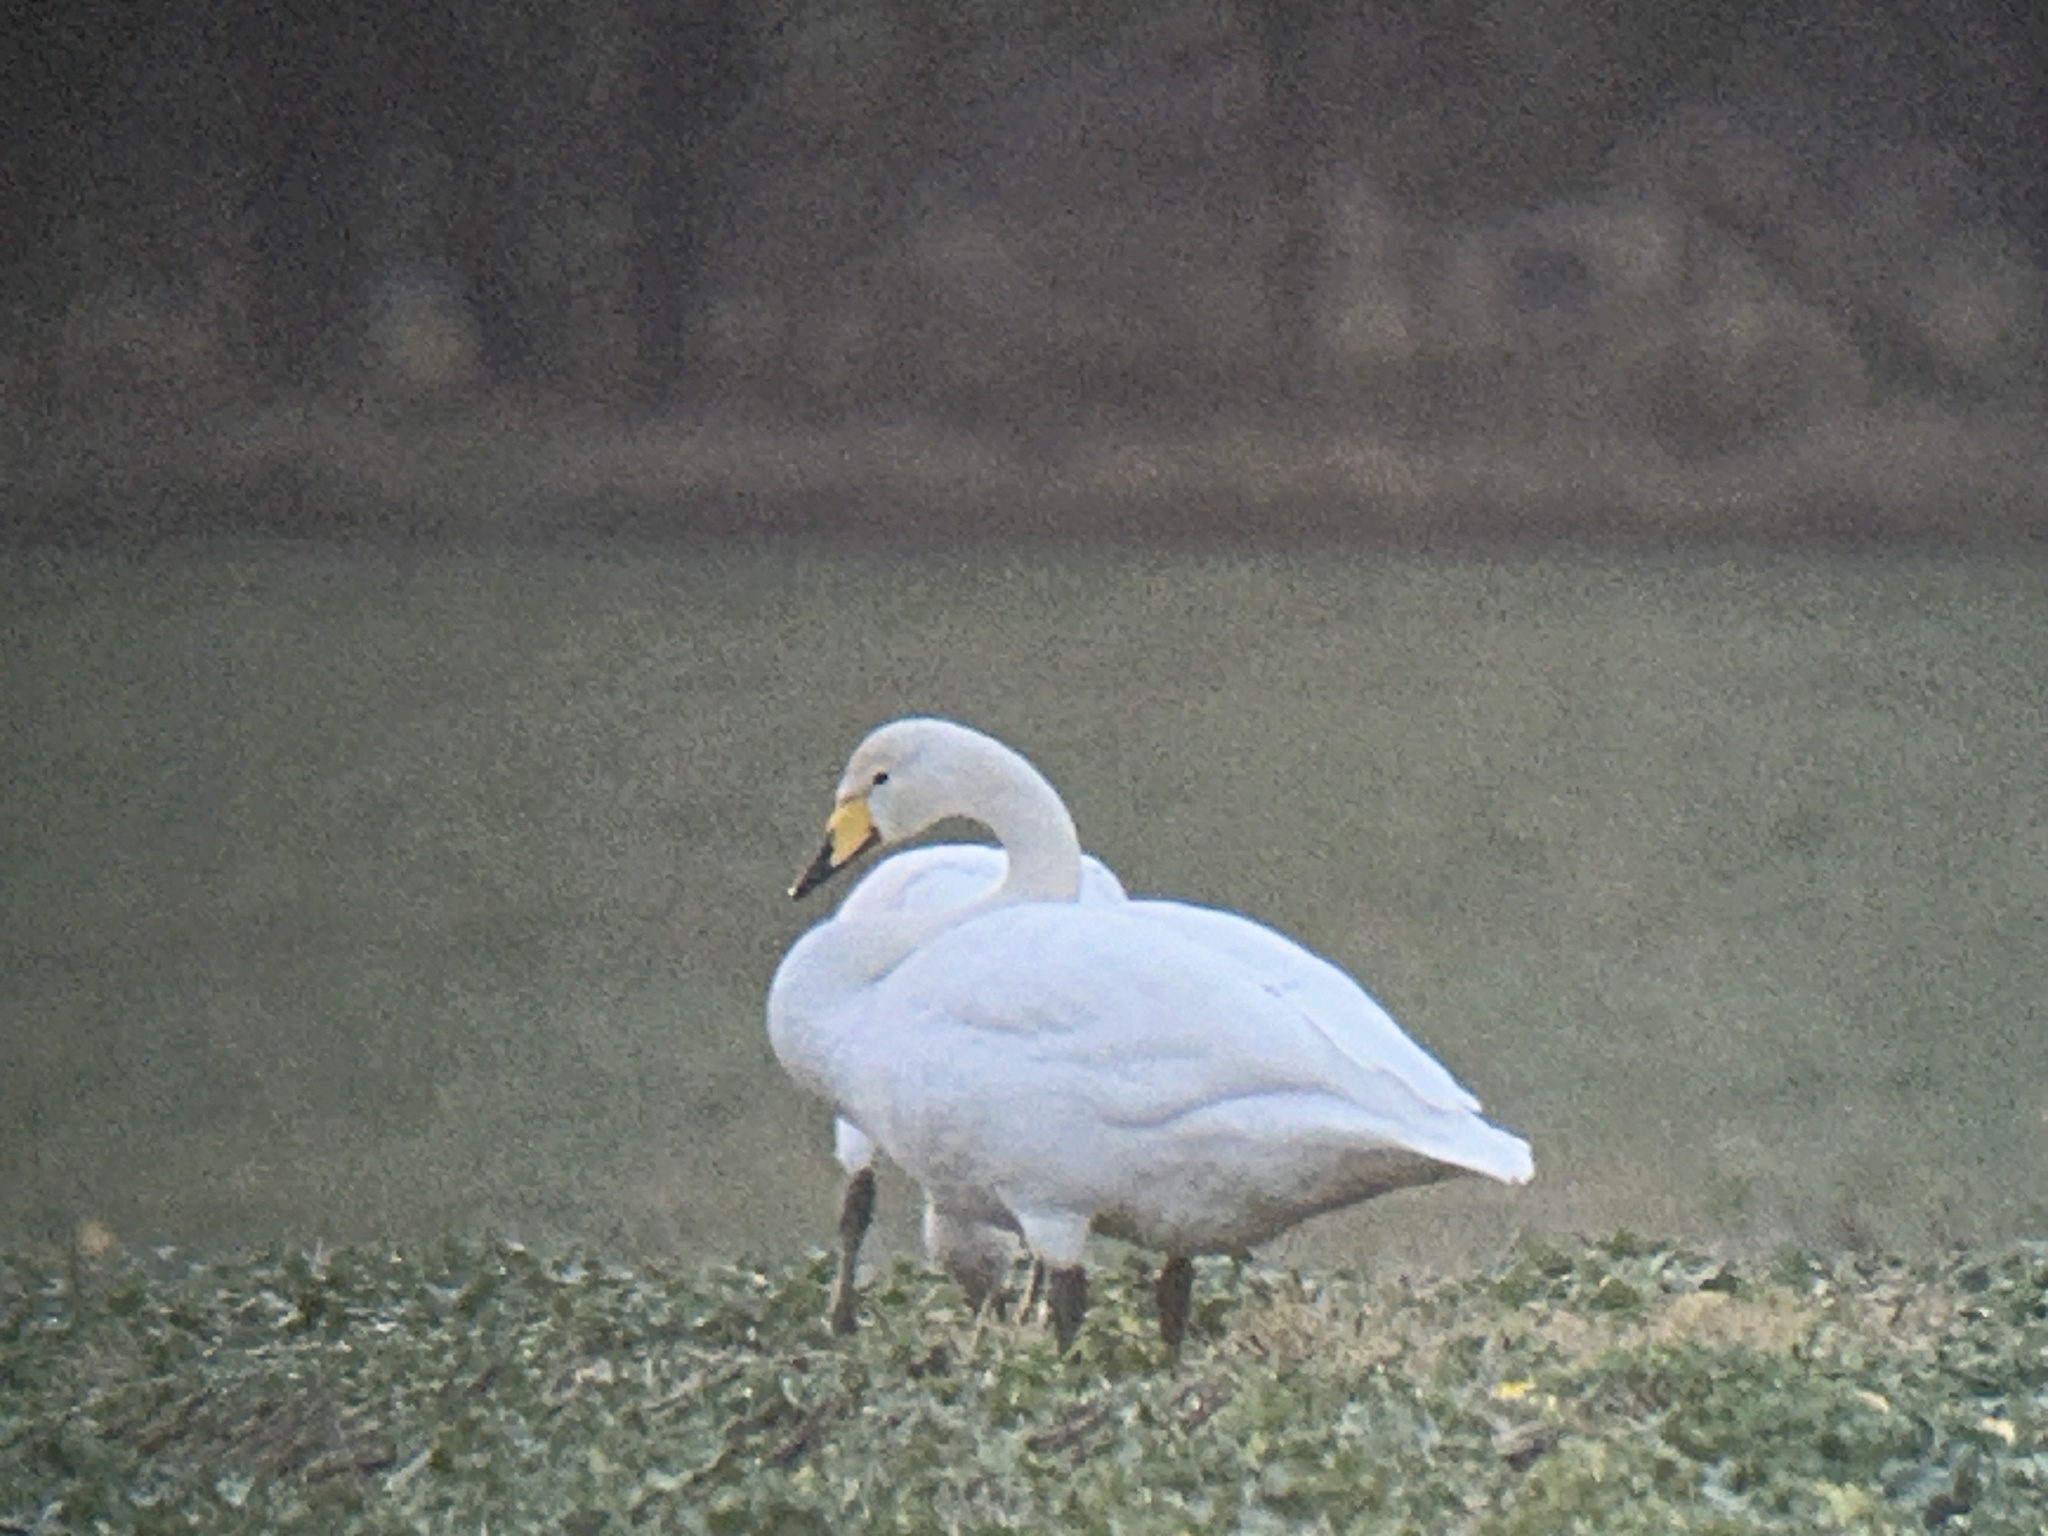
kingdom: Animalia
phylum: Chordata
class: Aves
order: Anseriformes
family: Anatidae
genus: Cygnus
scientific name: Cygnus cygnus
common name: Whooper swan
